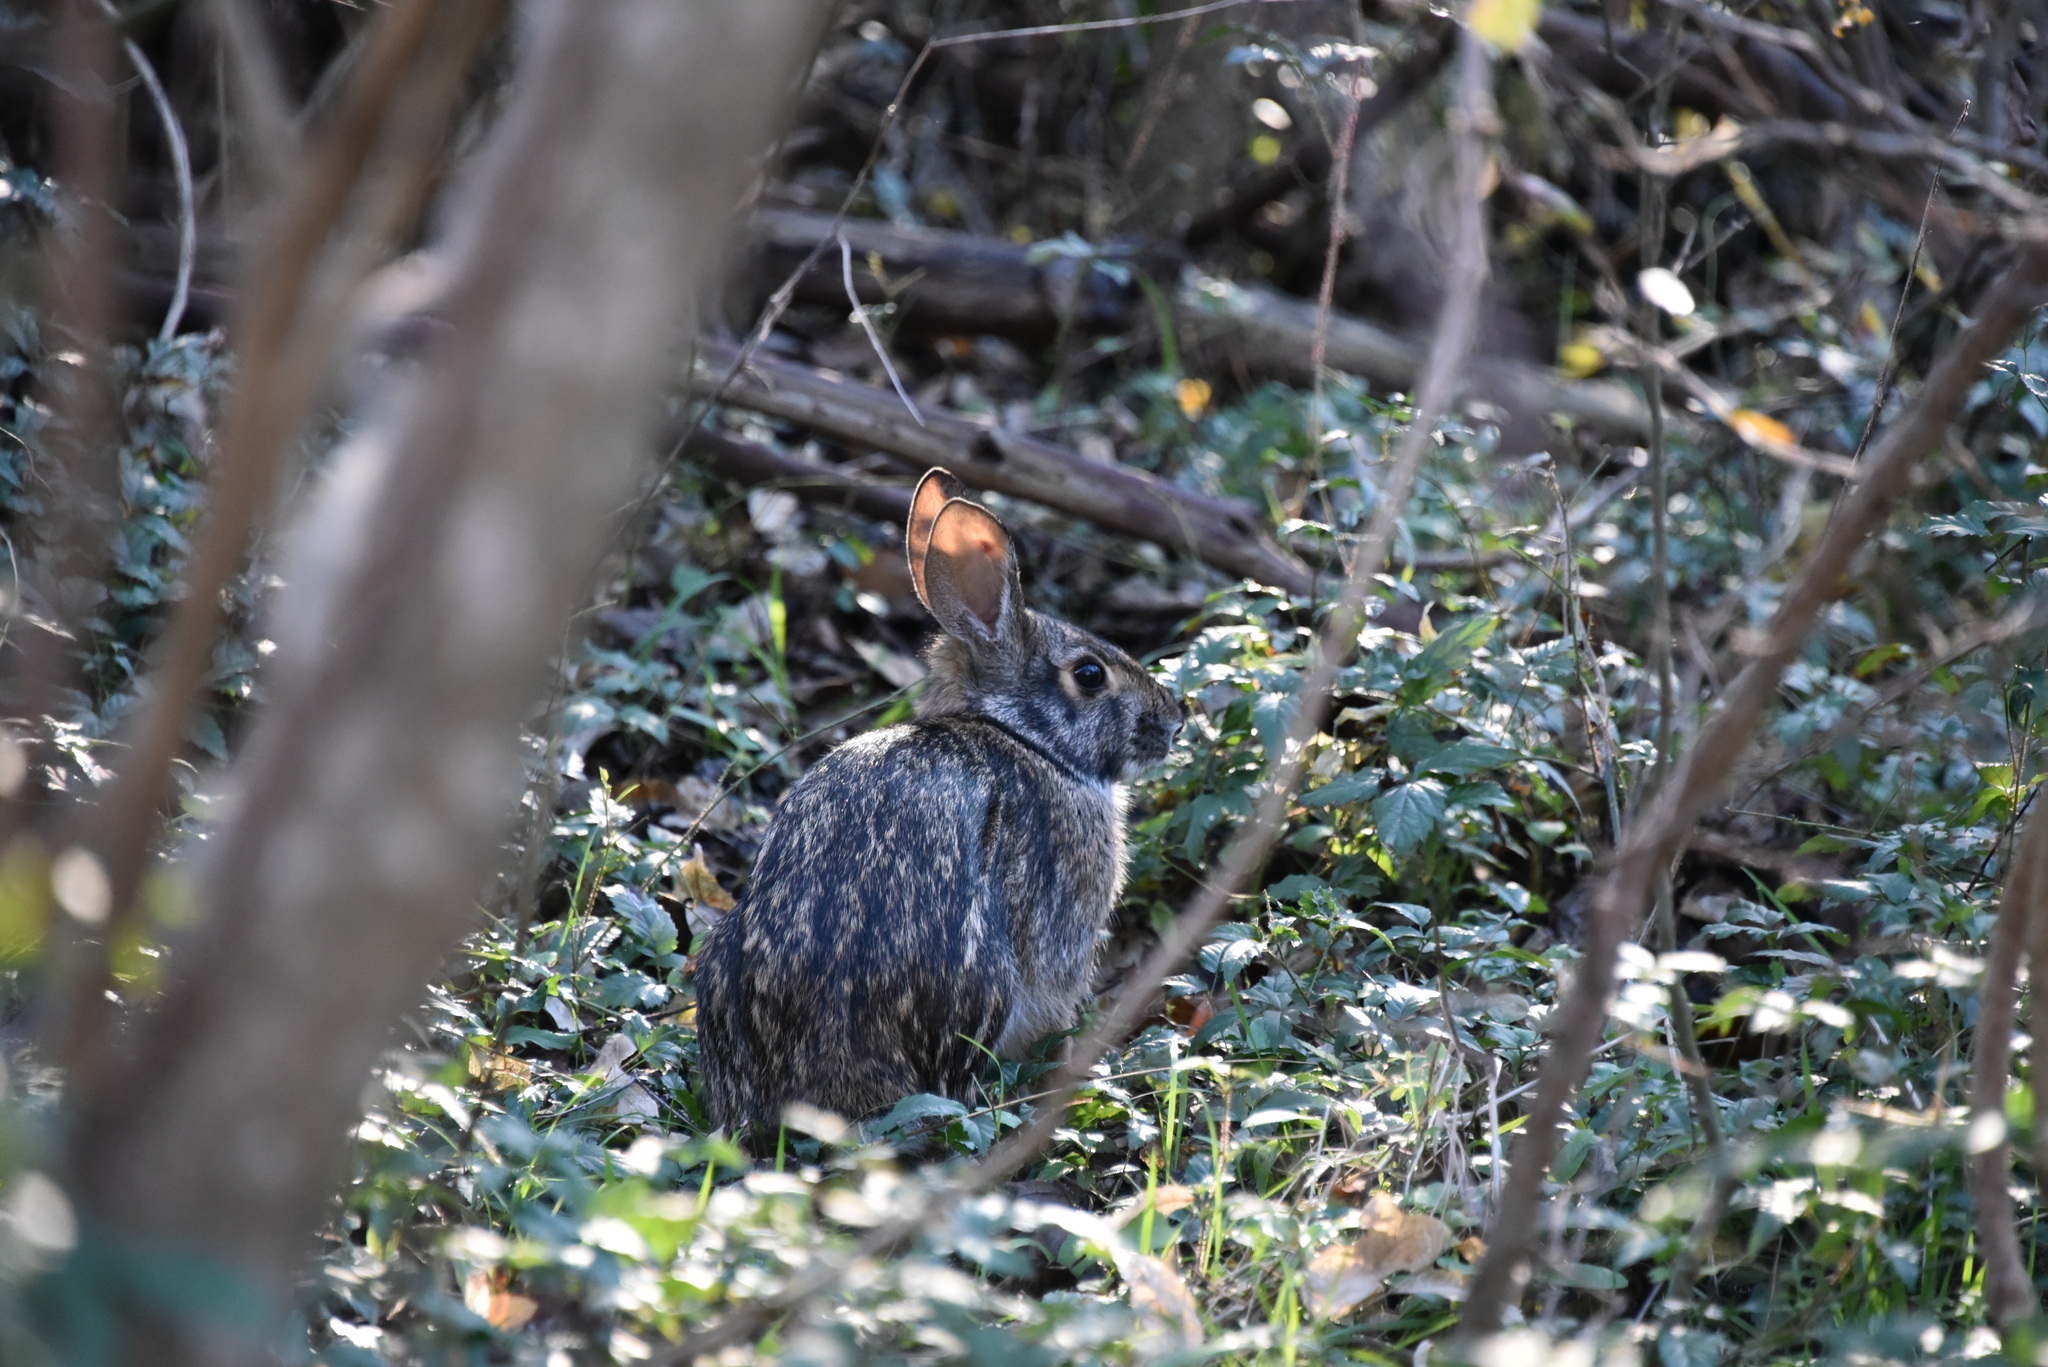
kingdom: Animalia
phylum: Chordata
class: Mammalia
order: Lagomorpha
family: Leporidae
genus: Sylvilagus
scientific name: Sylvilagus aquaticus
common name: Swamp rabbit
